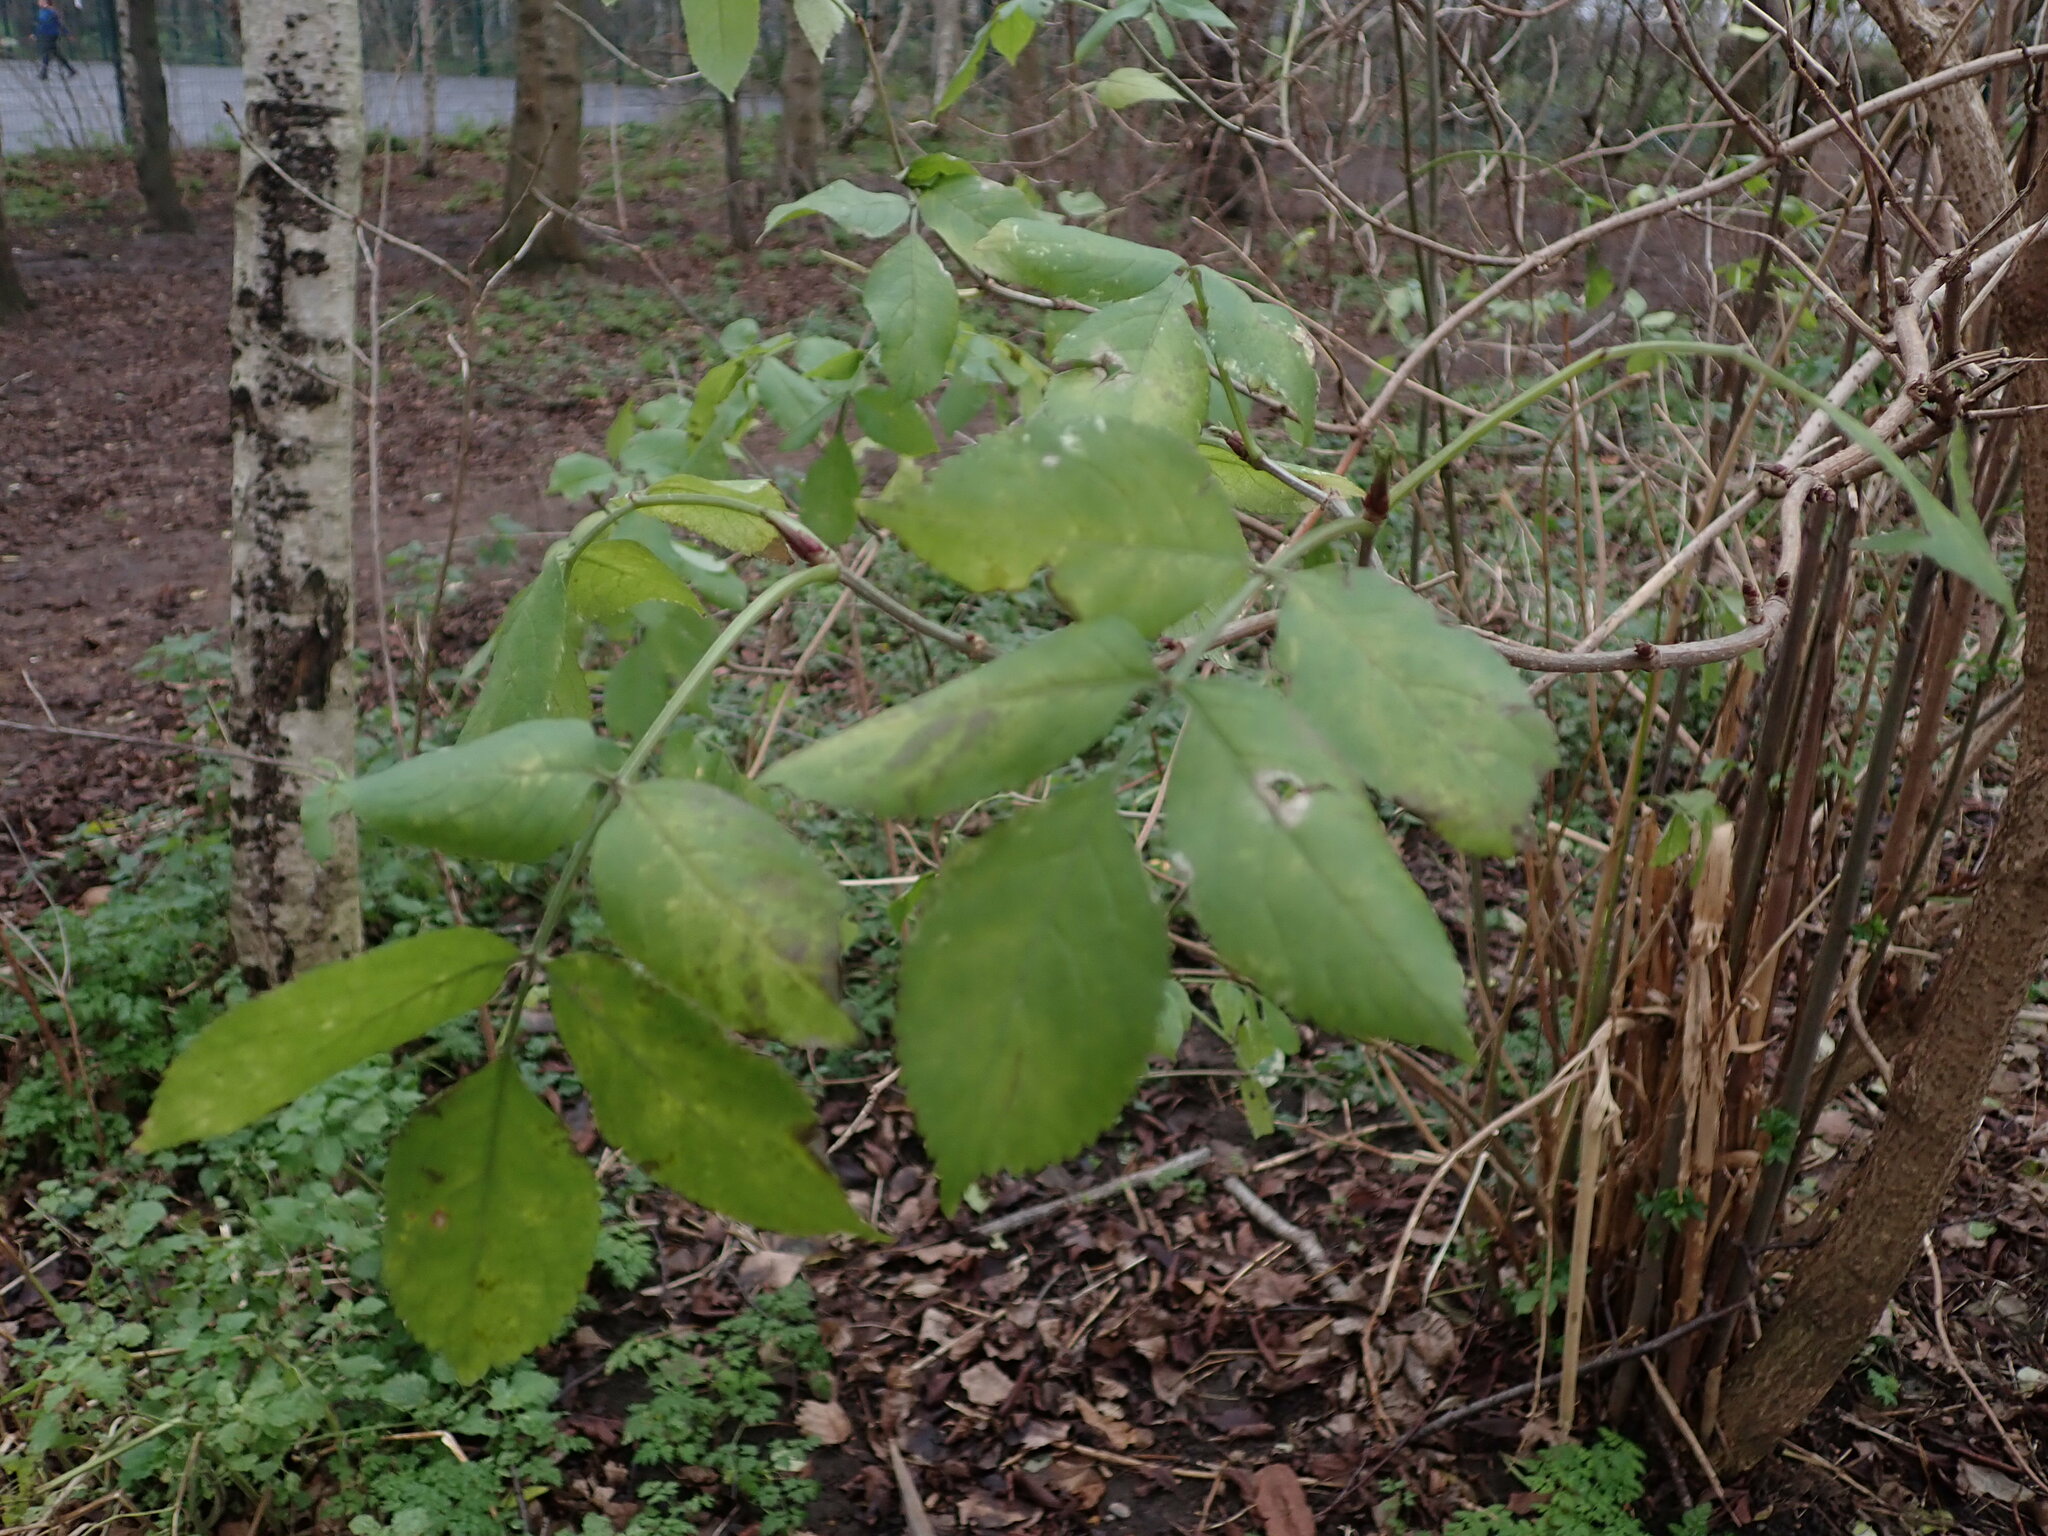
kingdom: Plantae
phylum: Tracheophyta
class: Magnoliopsida
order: Dipsacales
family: Viburnaceae
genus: Sambucus
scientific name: Sambucus nigra
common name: Elder
